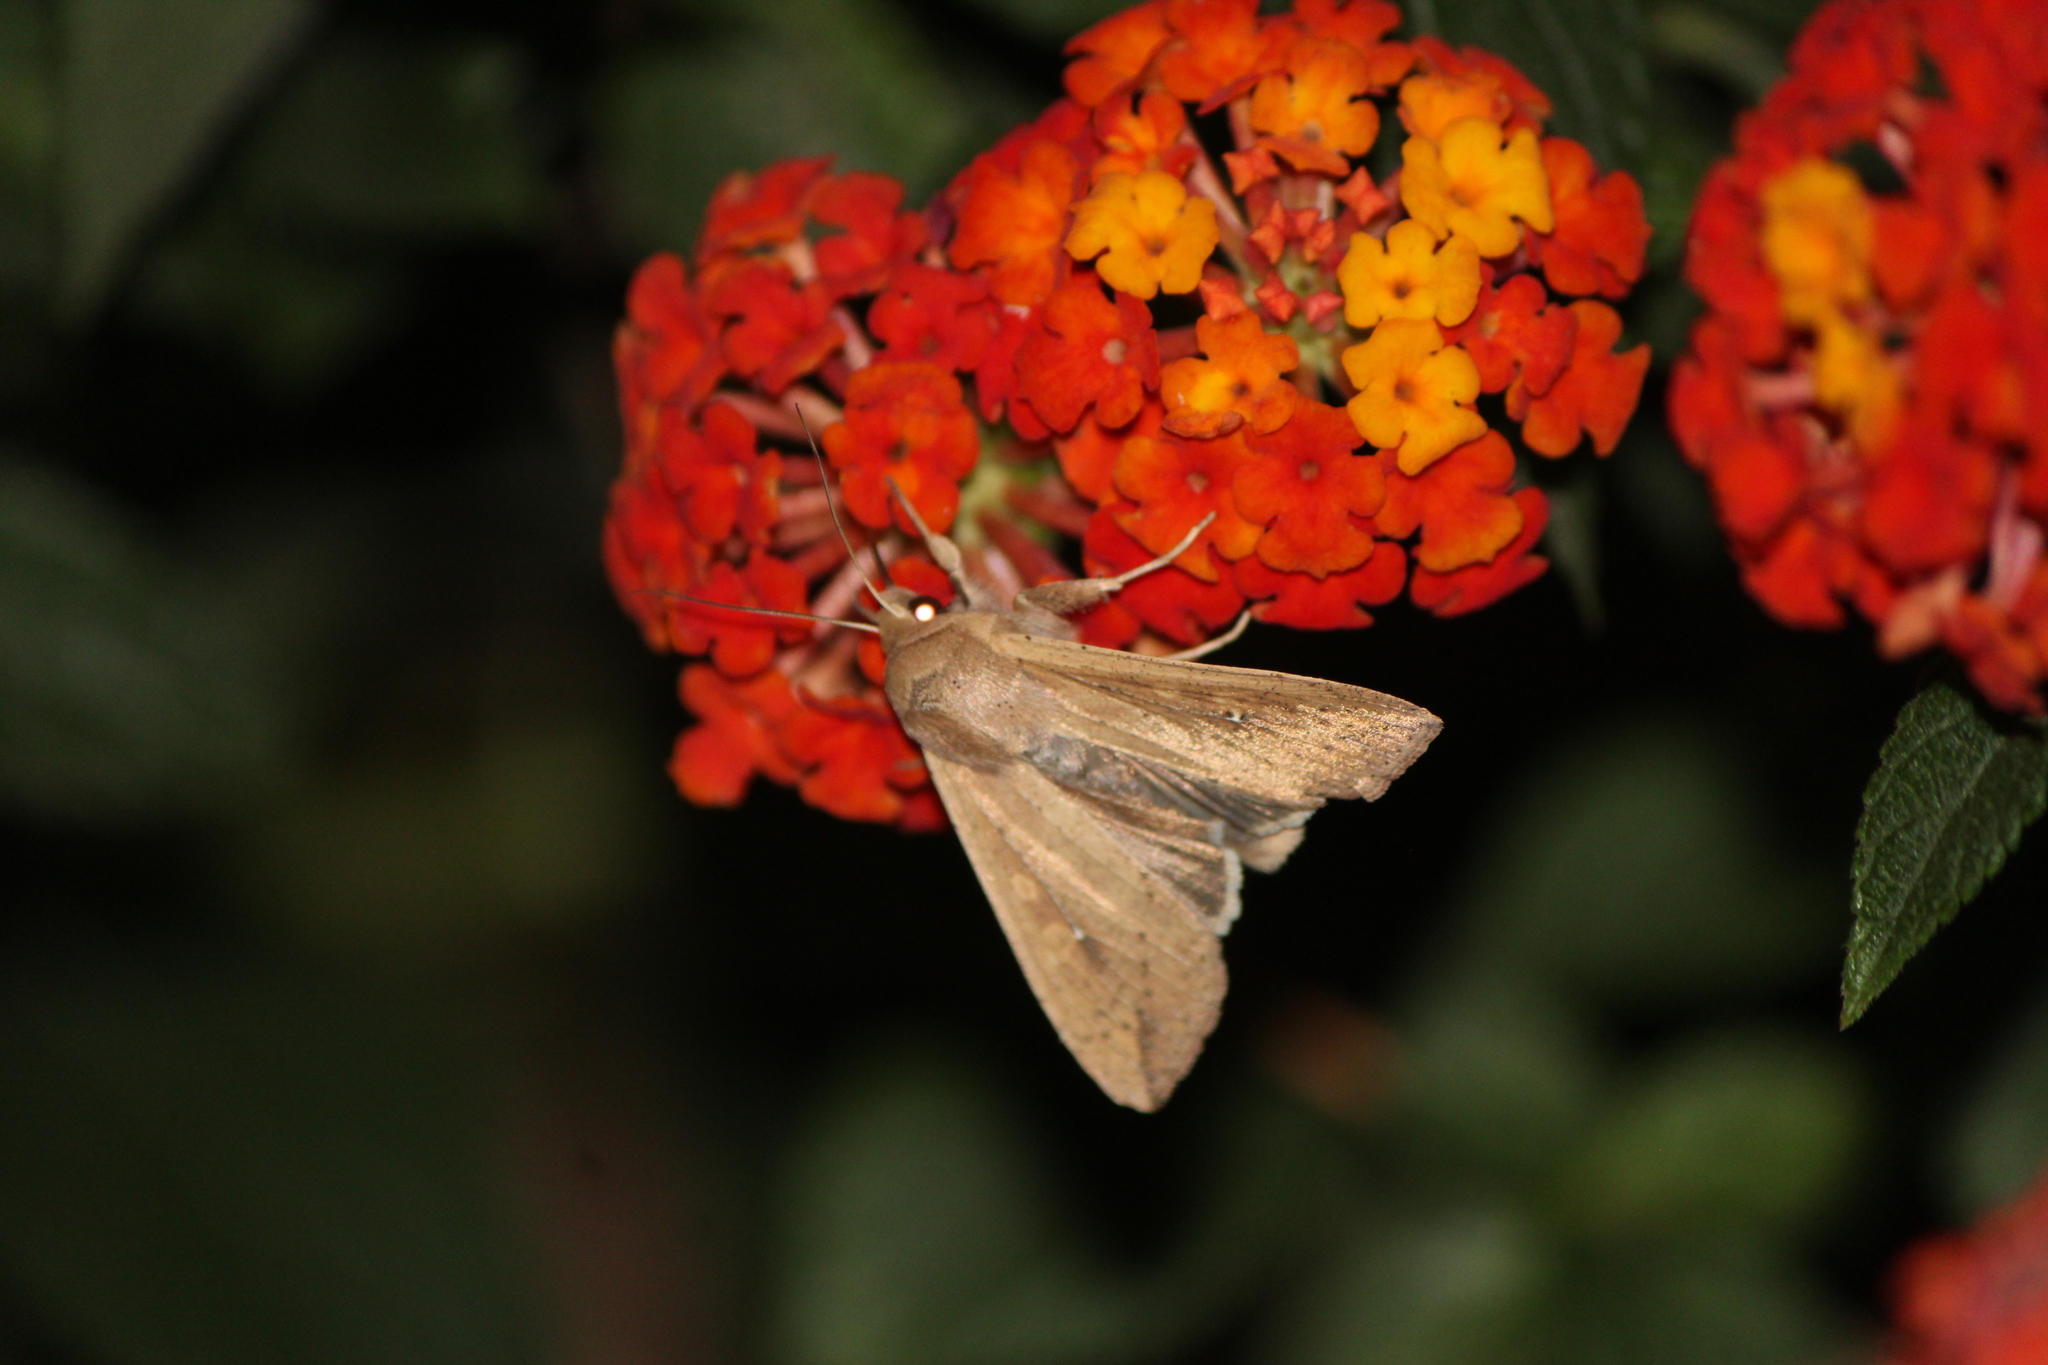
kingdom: Animalia
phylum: Arthropoda
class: Insecta
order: Lepidoptera
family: Noctuidae
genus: Mythimna
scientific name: Mythimna unipuncta
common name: White-speck
